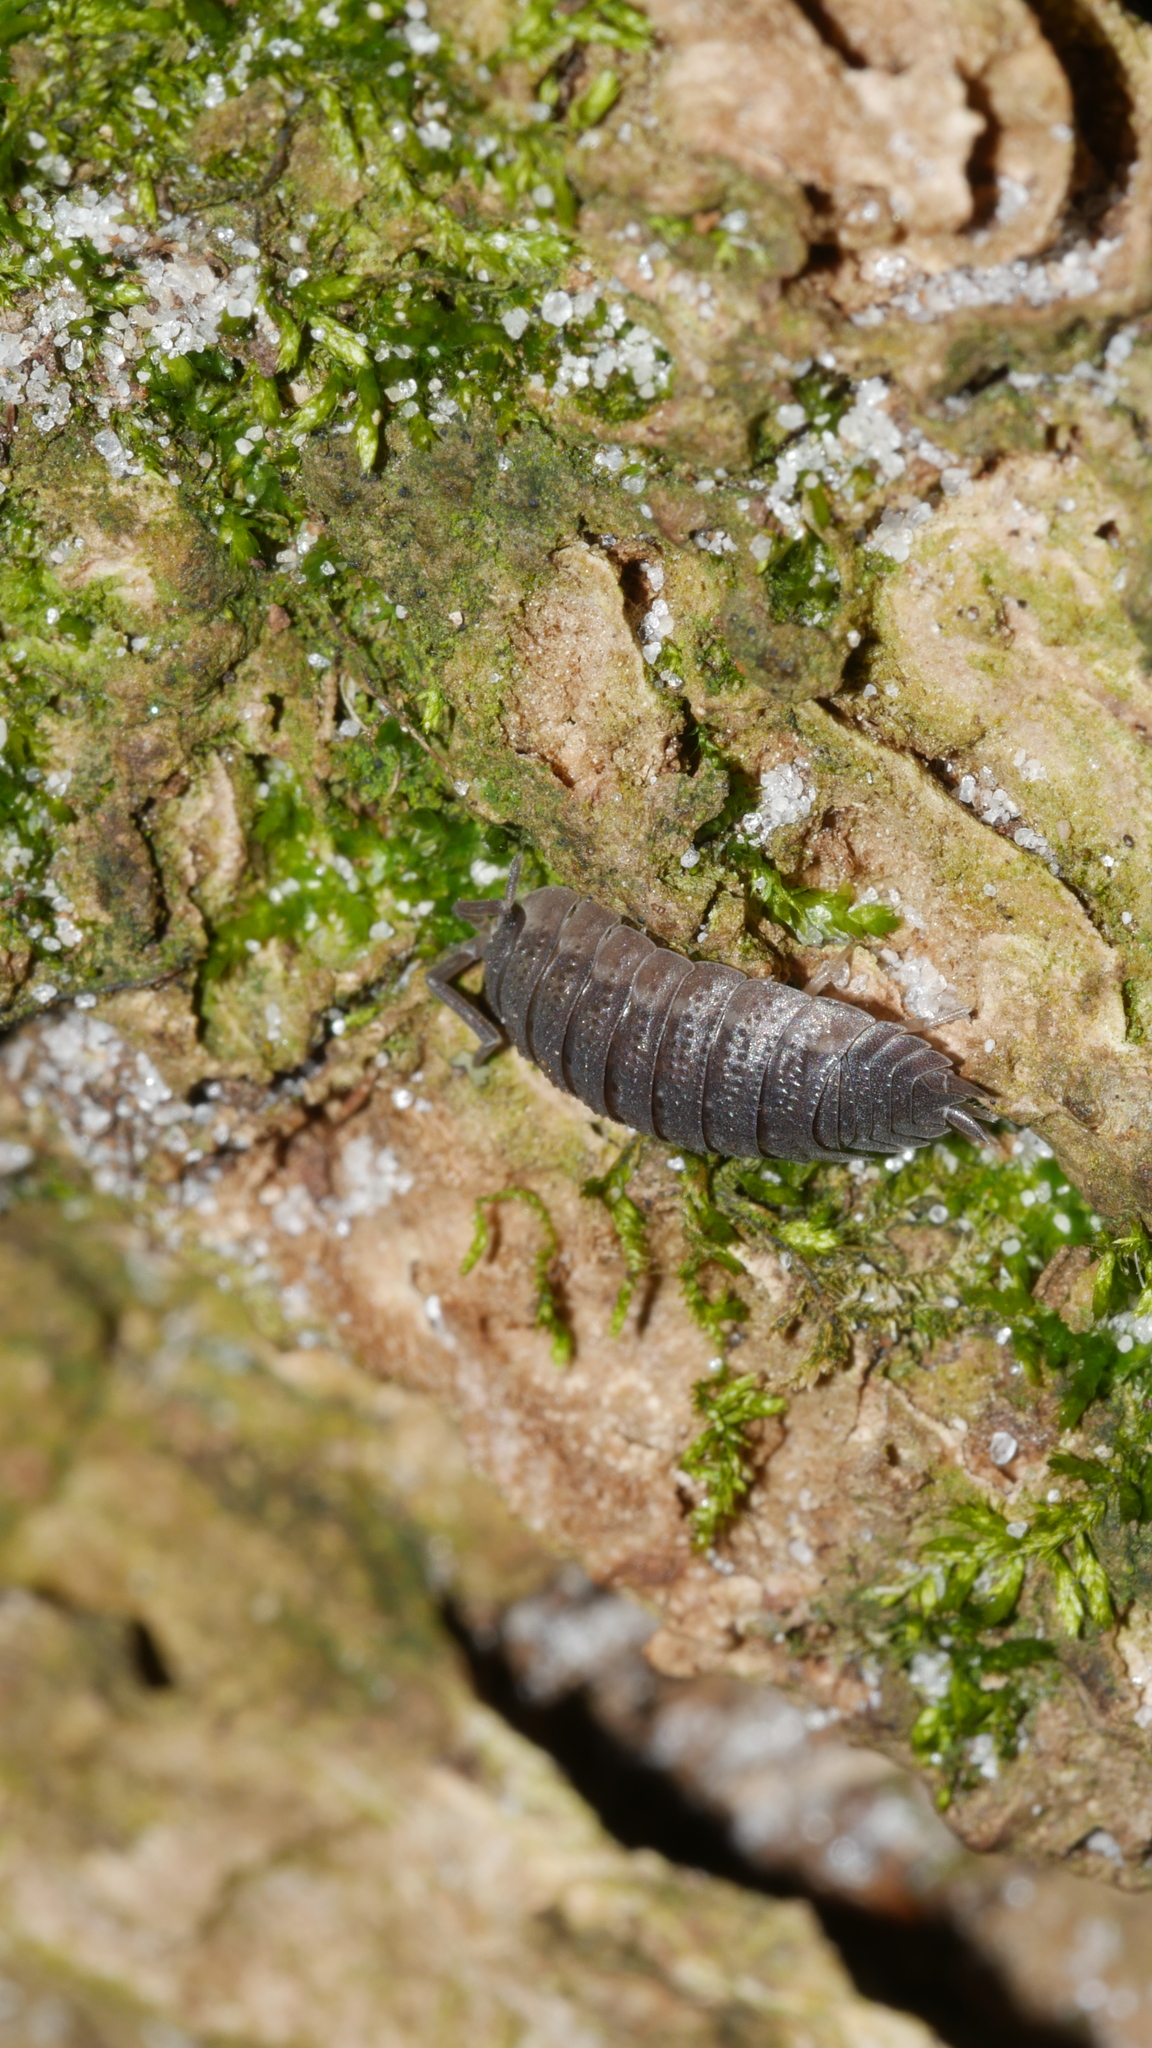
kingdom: Animalia
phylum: Arthropoda
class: Malacostraca
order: Isopoda
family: Porcellionidae
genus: Porcellio
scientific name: Porcellio scaber
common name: Common rough woodlouse
